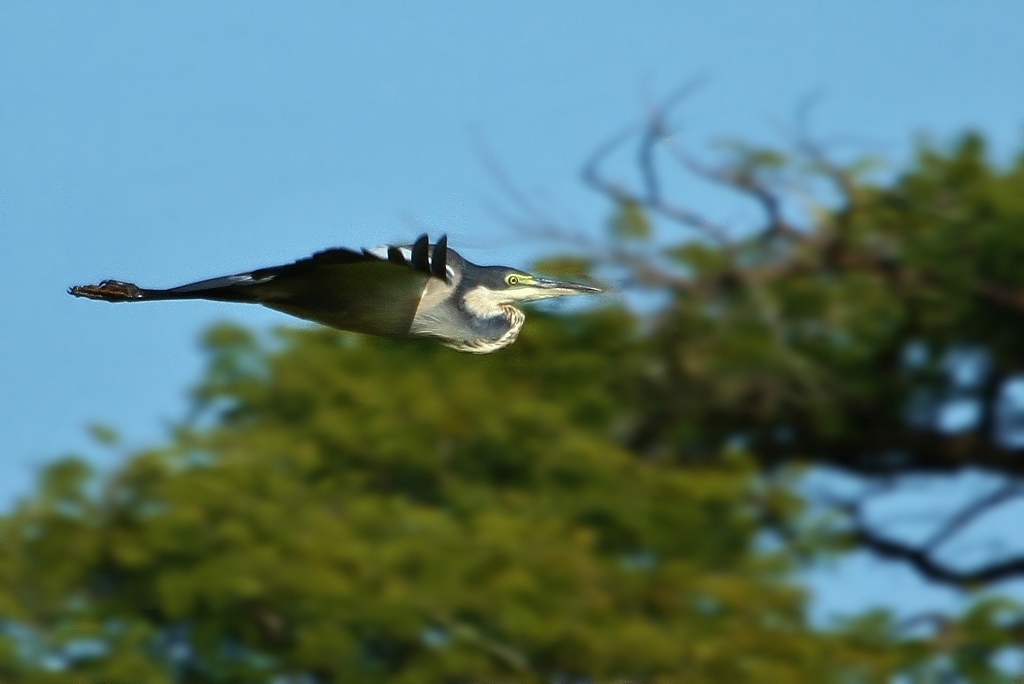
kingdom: Animalia
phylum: Chordata
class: Aves
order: Pelecaniformes
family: Ardeidae
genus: Ardea
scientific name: Ardea melanocephala
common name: Black-headed heron
